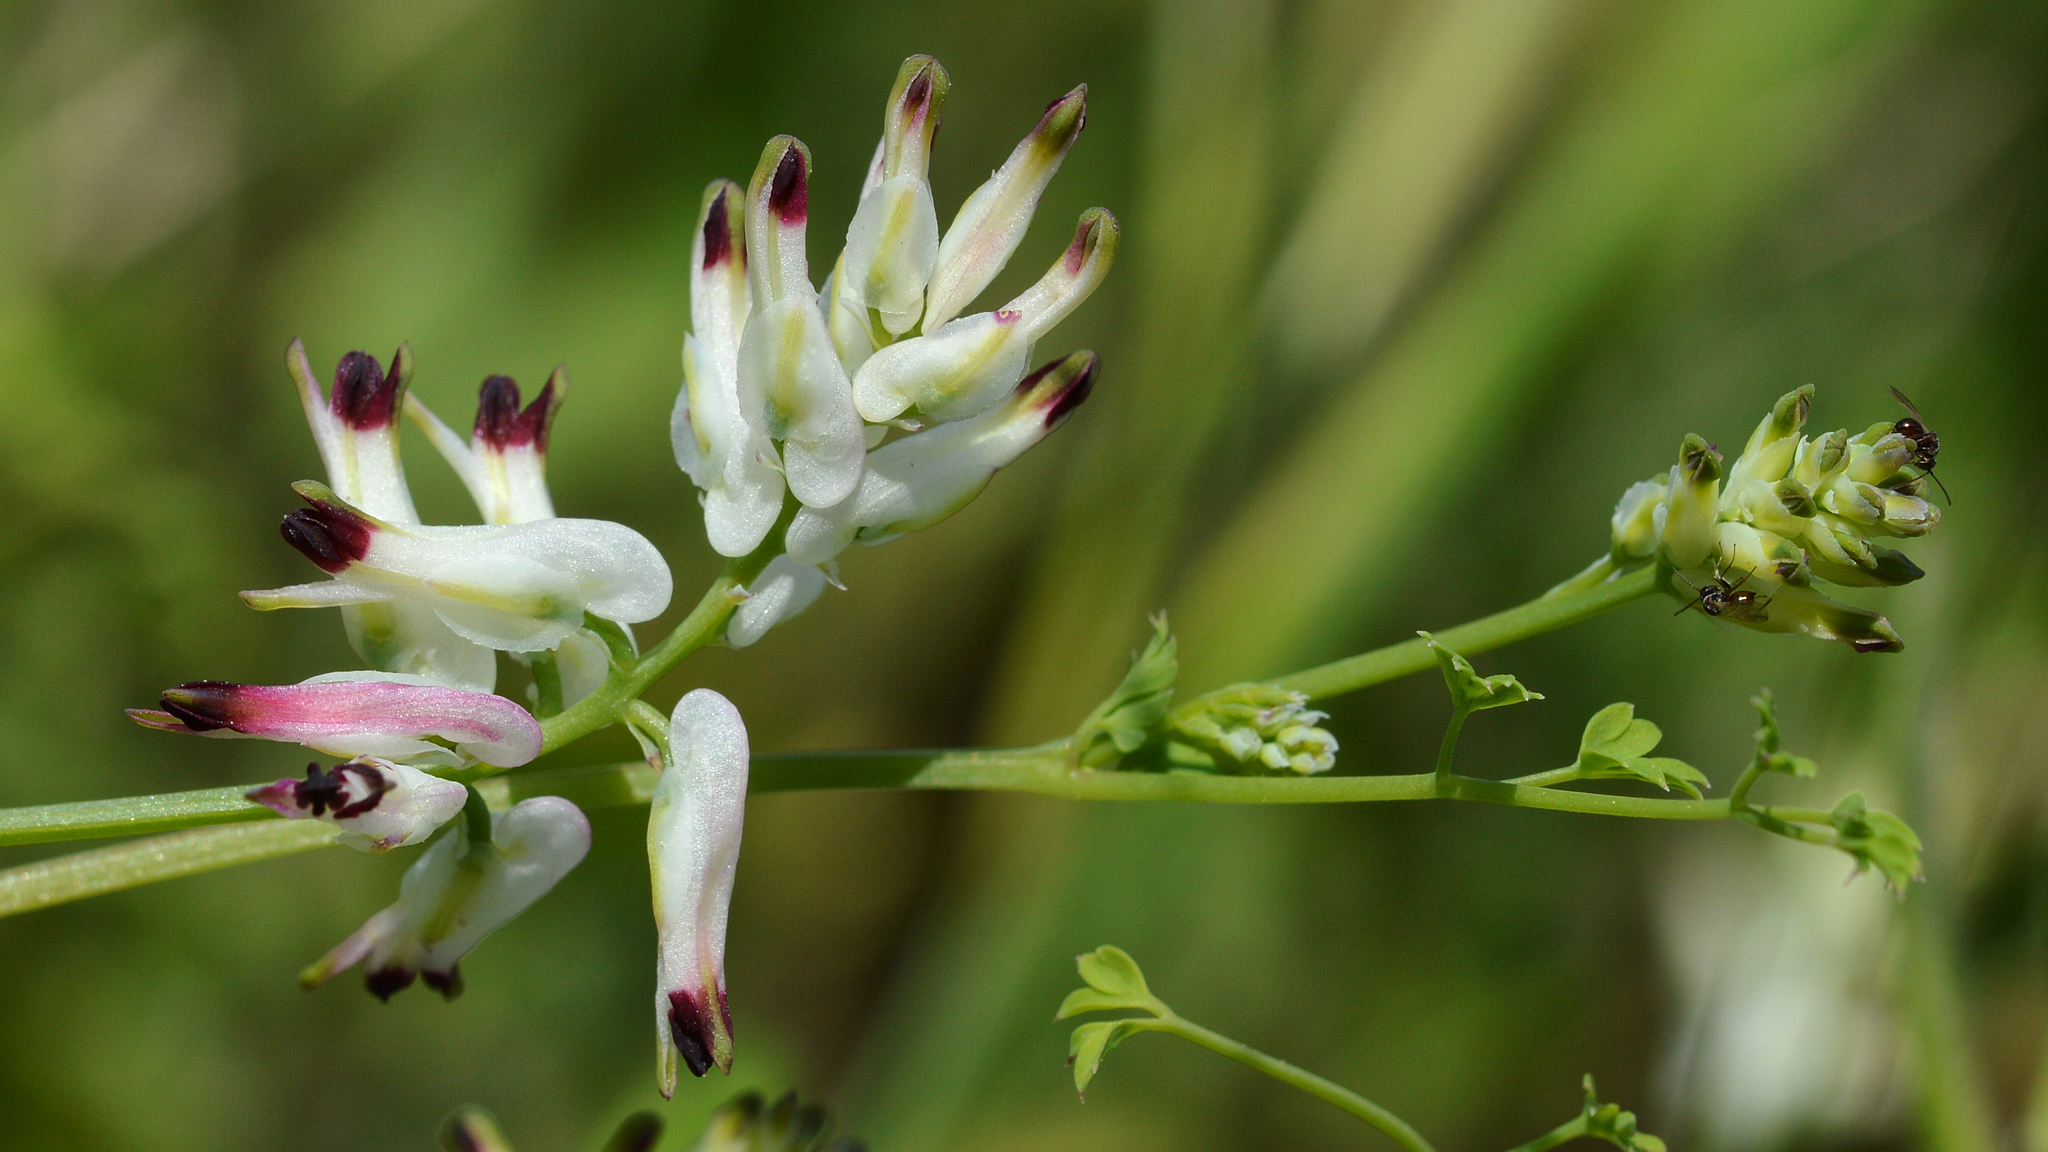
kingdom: Plantae
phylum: Tracheophyta
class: Magnoliopsida
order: Ranunculales
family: Papaveraceae
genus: Fumaria
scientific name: Fumaria capreolata
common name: White ramping-fumitory
